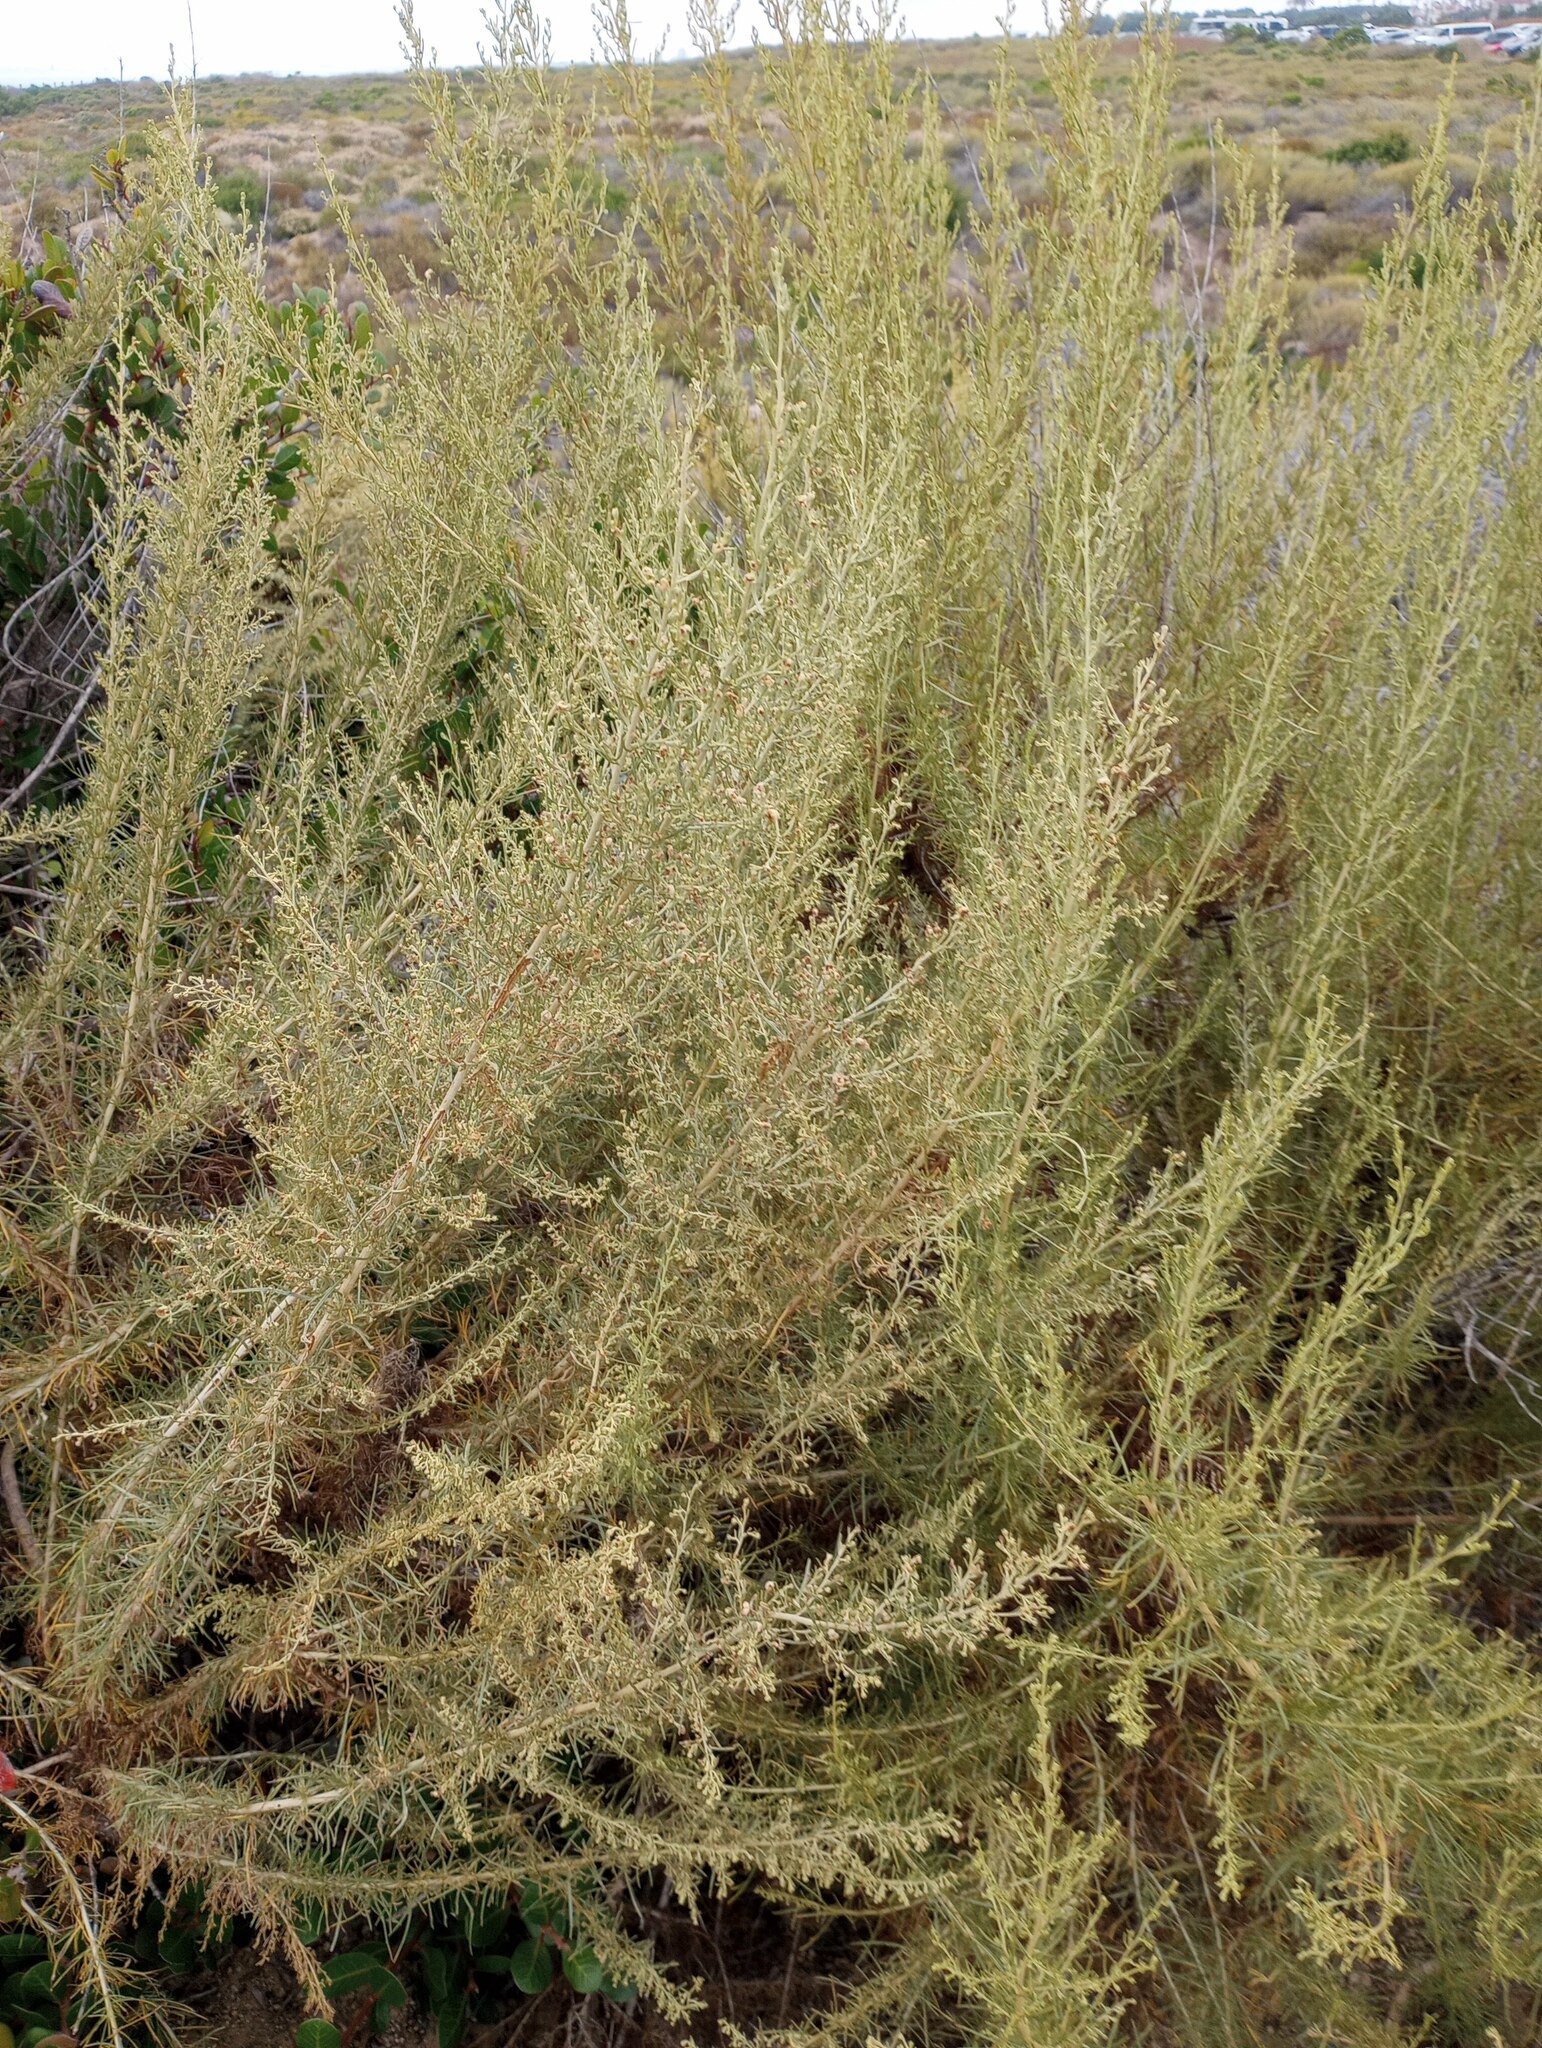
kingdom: Plantae
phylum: Tracheophyta
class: Magnoliopsida
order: Asterales
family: Asteraceae
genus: Artemisia
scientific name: Artemisia californica
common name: California sagebrush
